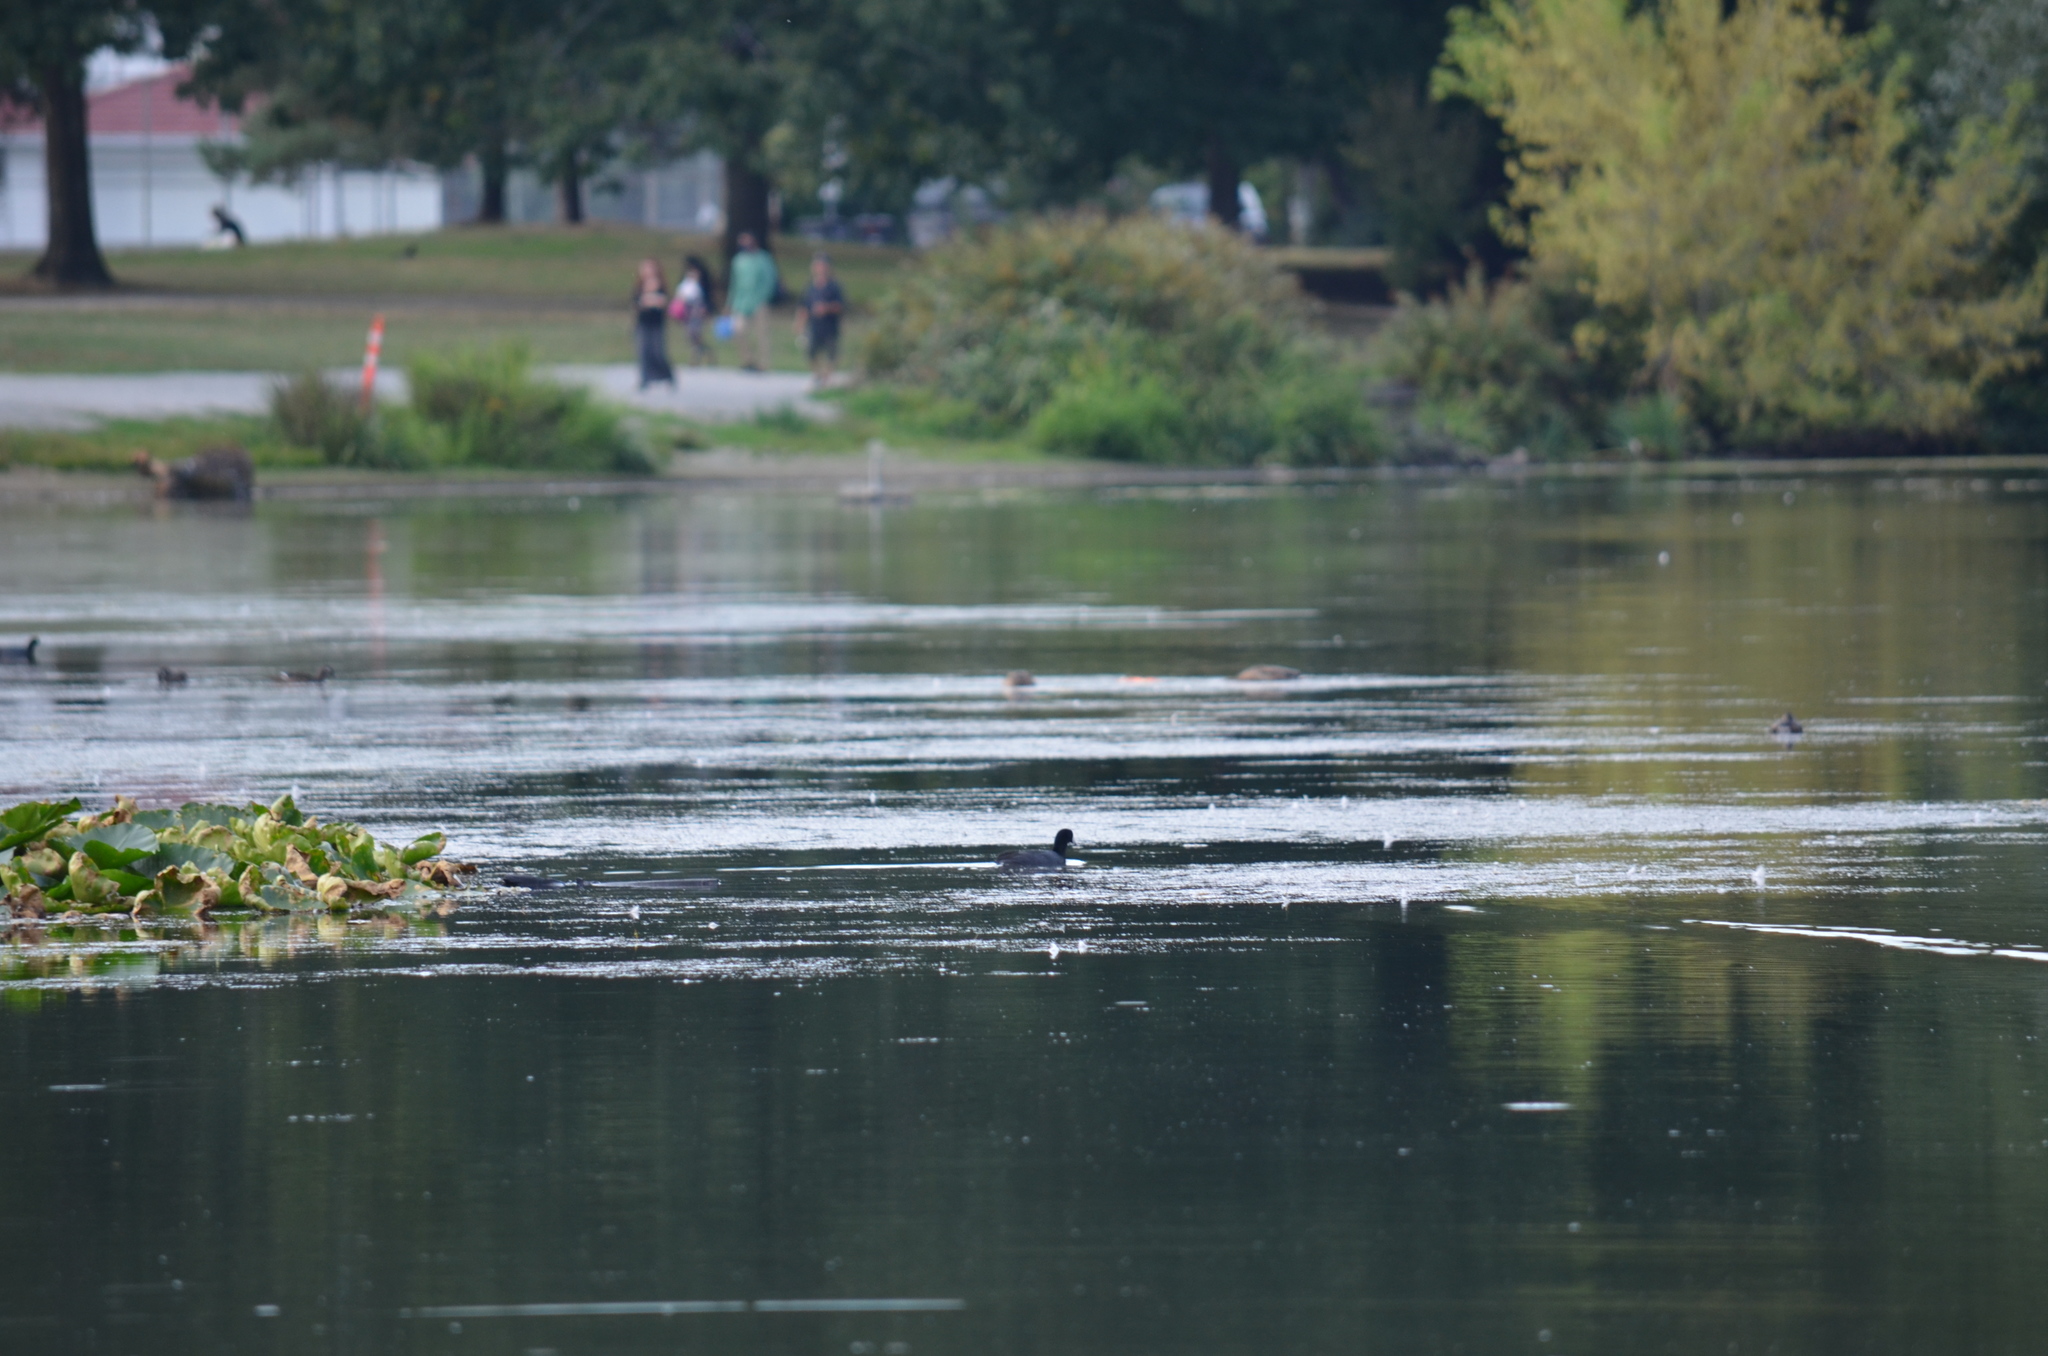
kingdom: Animalia
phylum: Chordata
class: Aves
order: Gruiformes
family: Rallidae
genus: Fulica
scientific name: Fulica americana
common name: American coot
